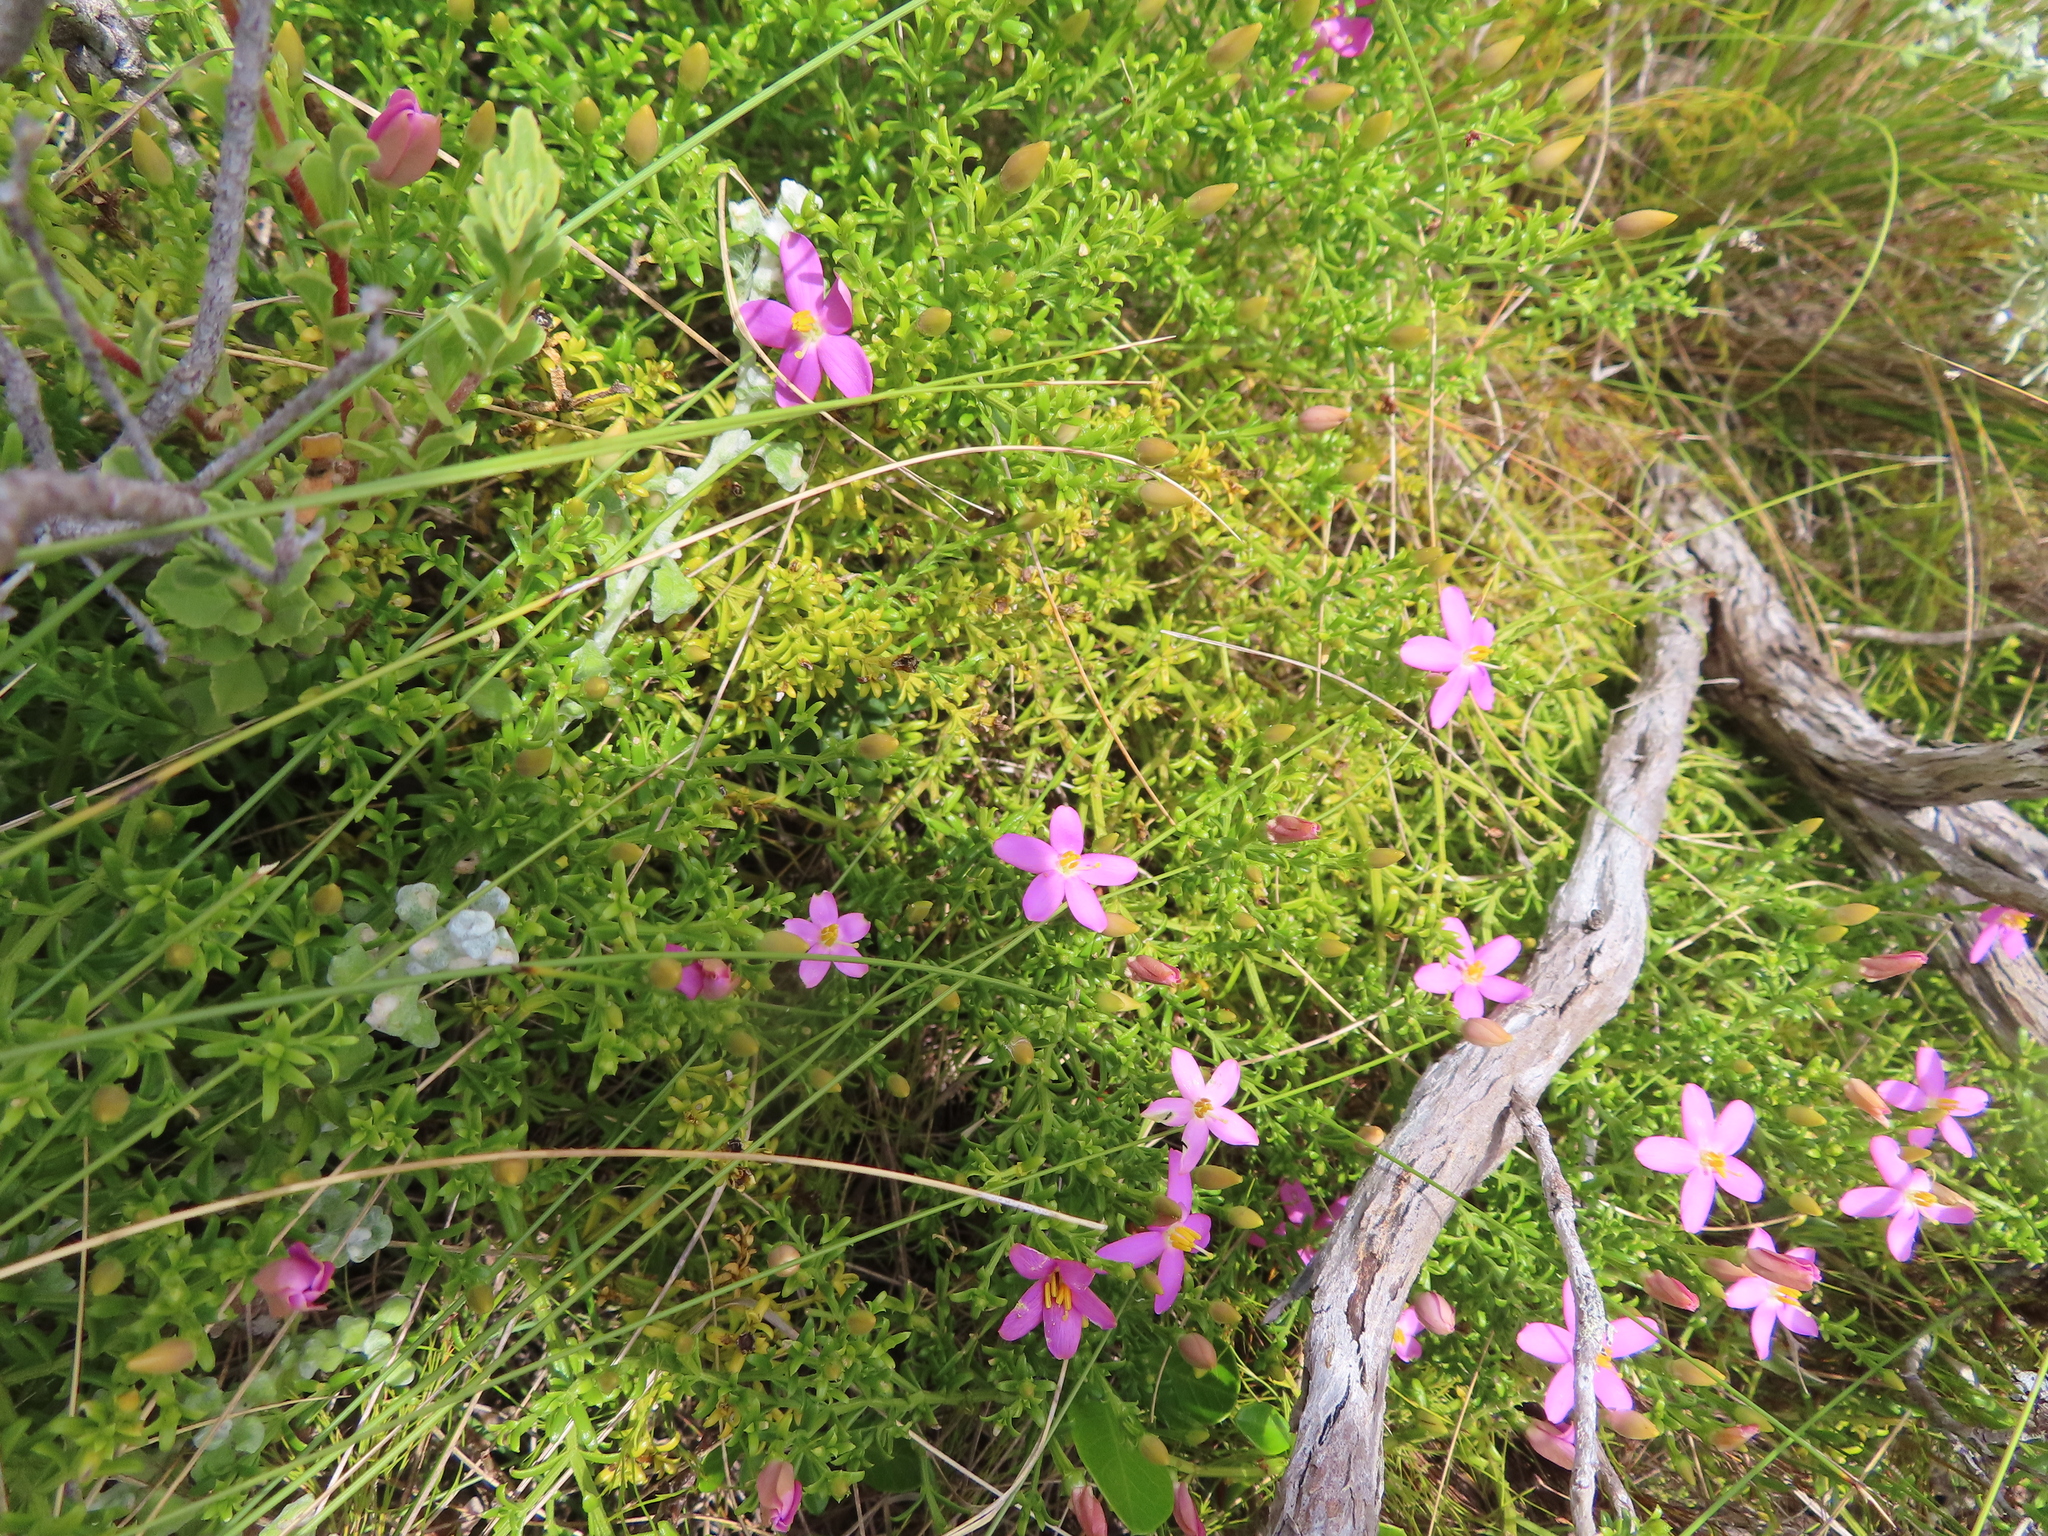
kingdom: Plantae
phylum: Tracheophyta
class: Magnoliopsida
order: Gentianales
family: Gentianaceae
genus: Chironia
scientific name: Chironia baccifera
